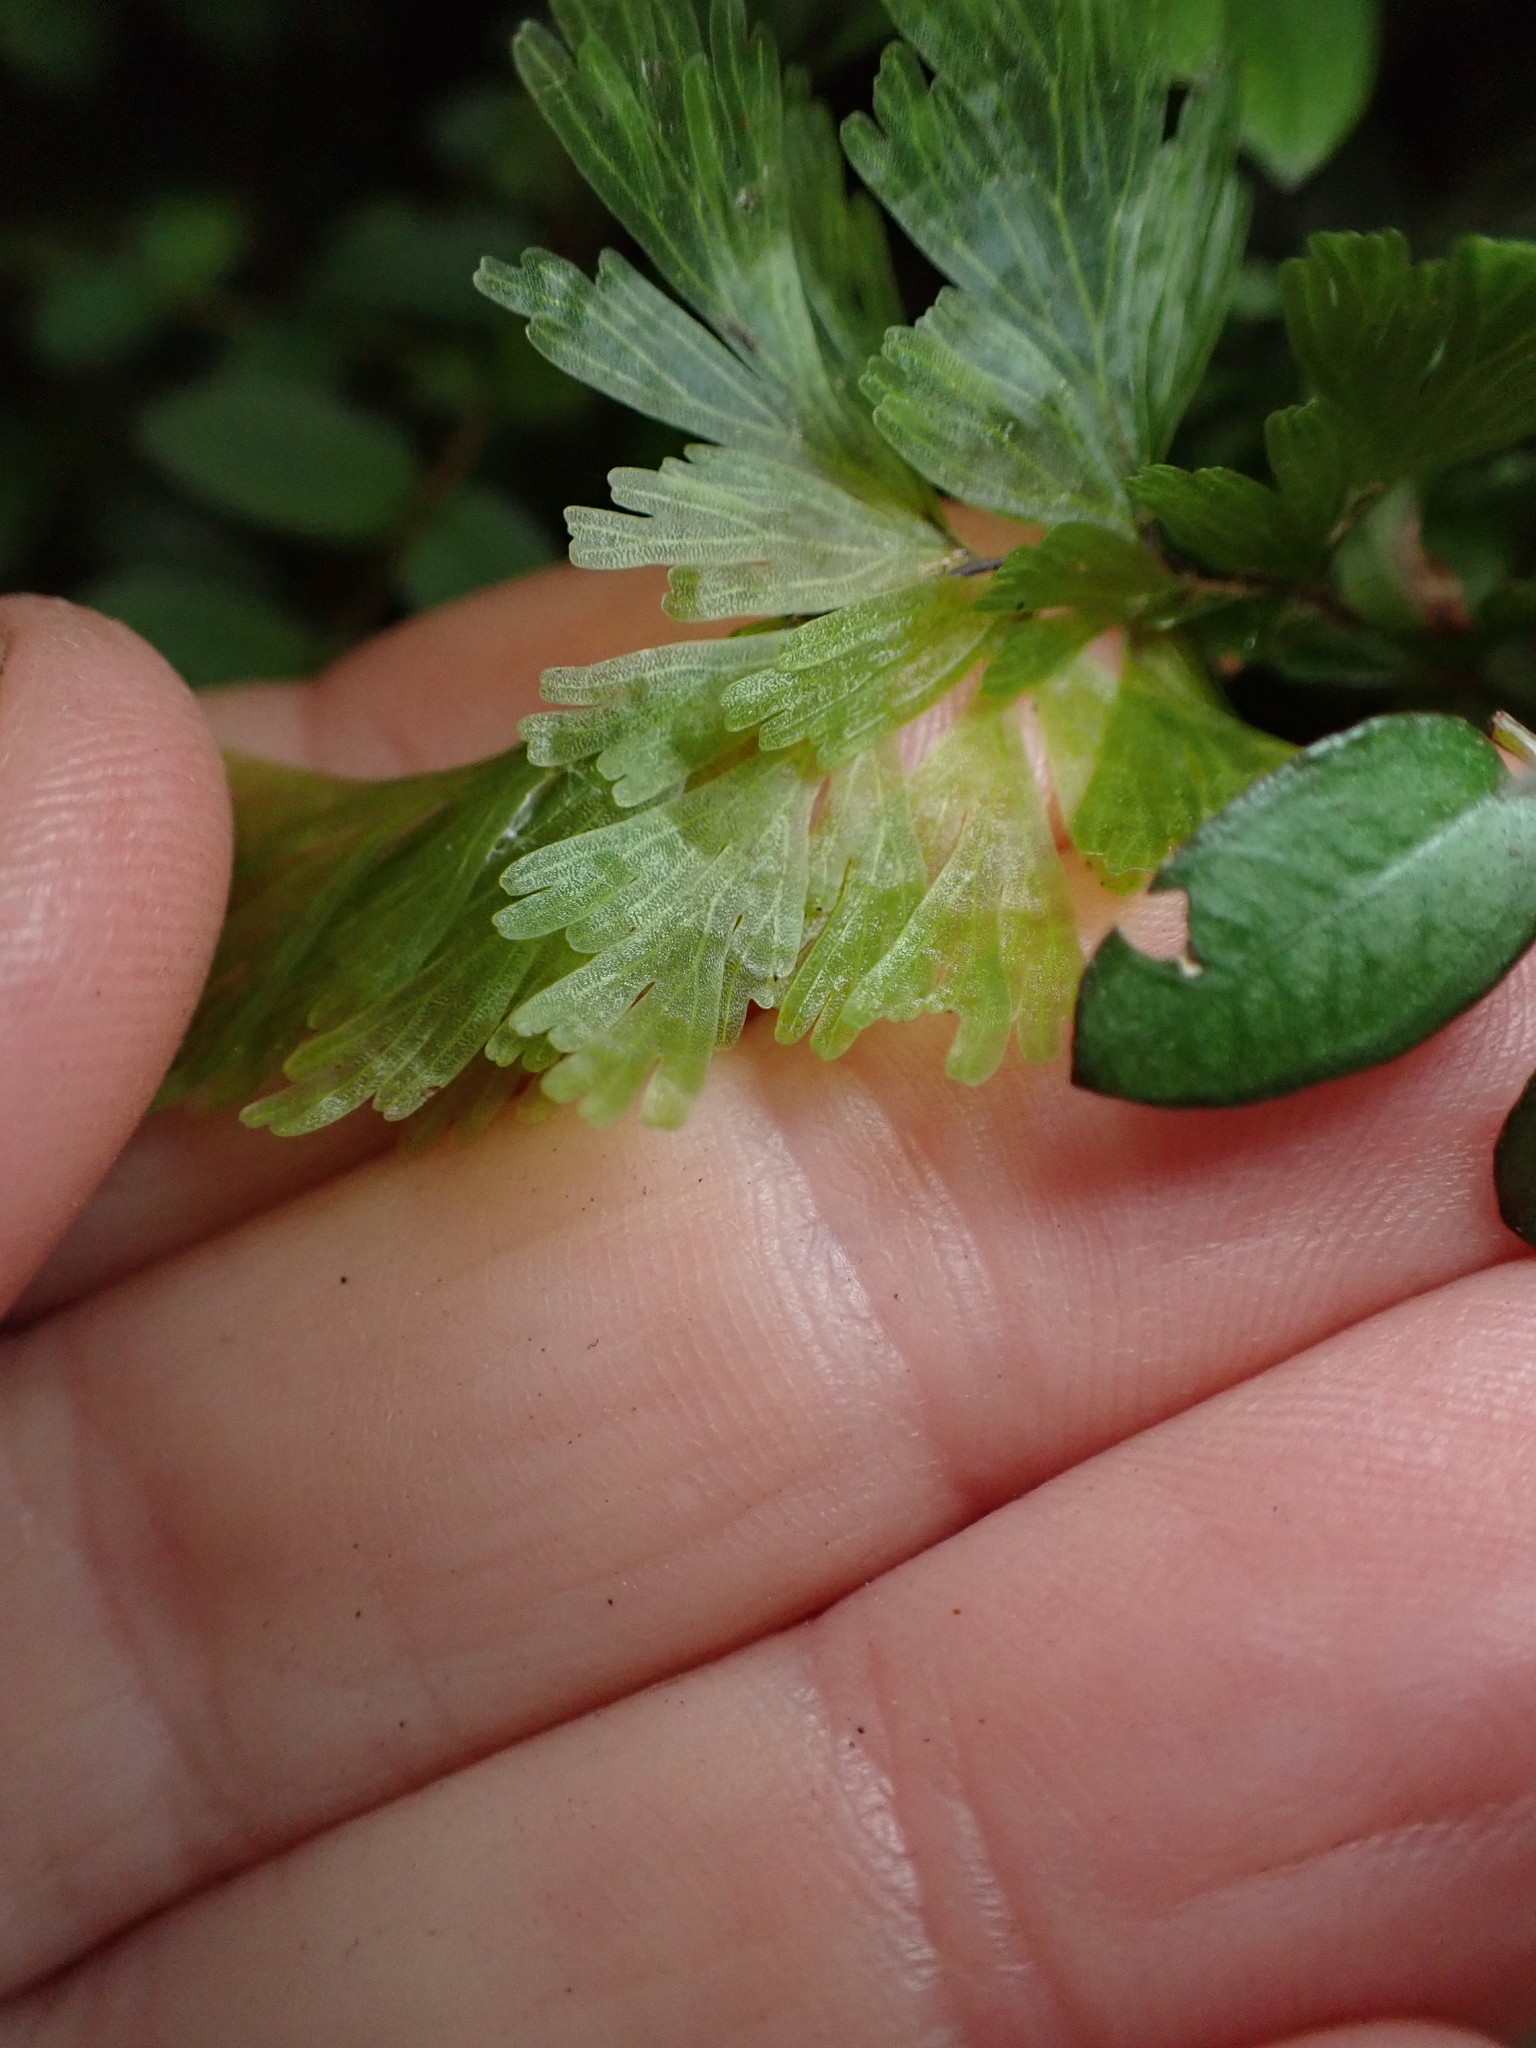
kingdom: Plantae
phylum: Tracheophyta
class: Polypodiopsida
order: Hymenophyllales
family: Hymenophyllaceae
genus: Hymenophyllum
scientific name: Hymenophyllum flabellatum
